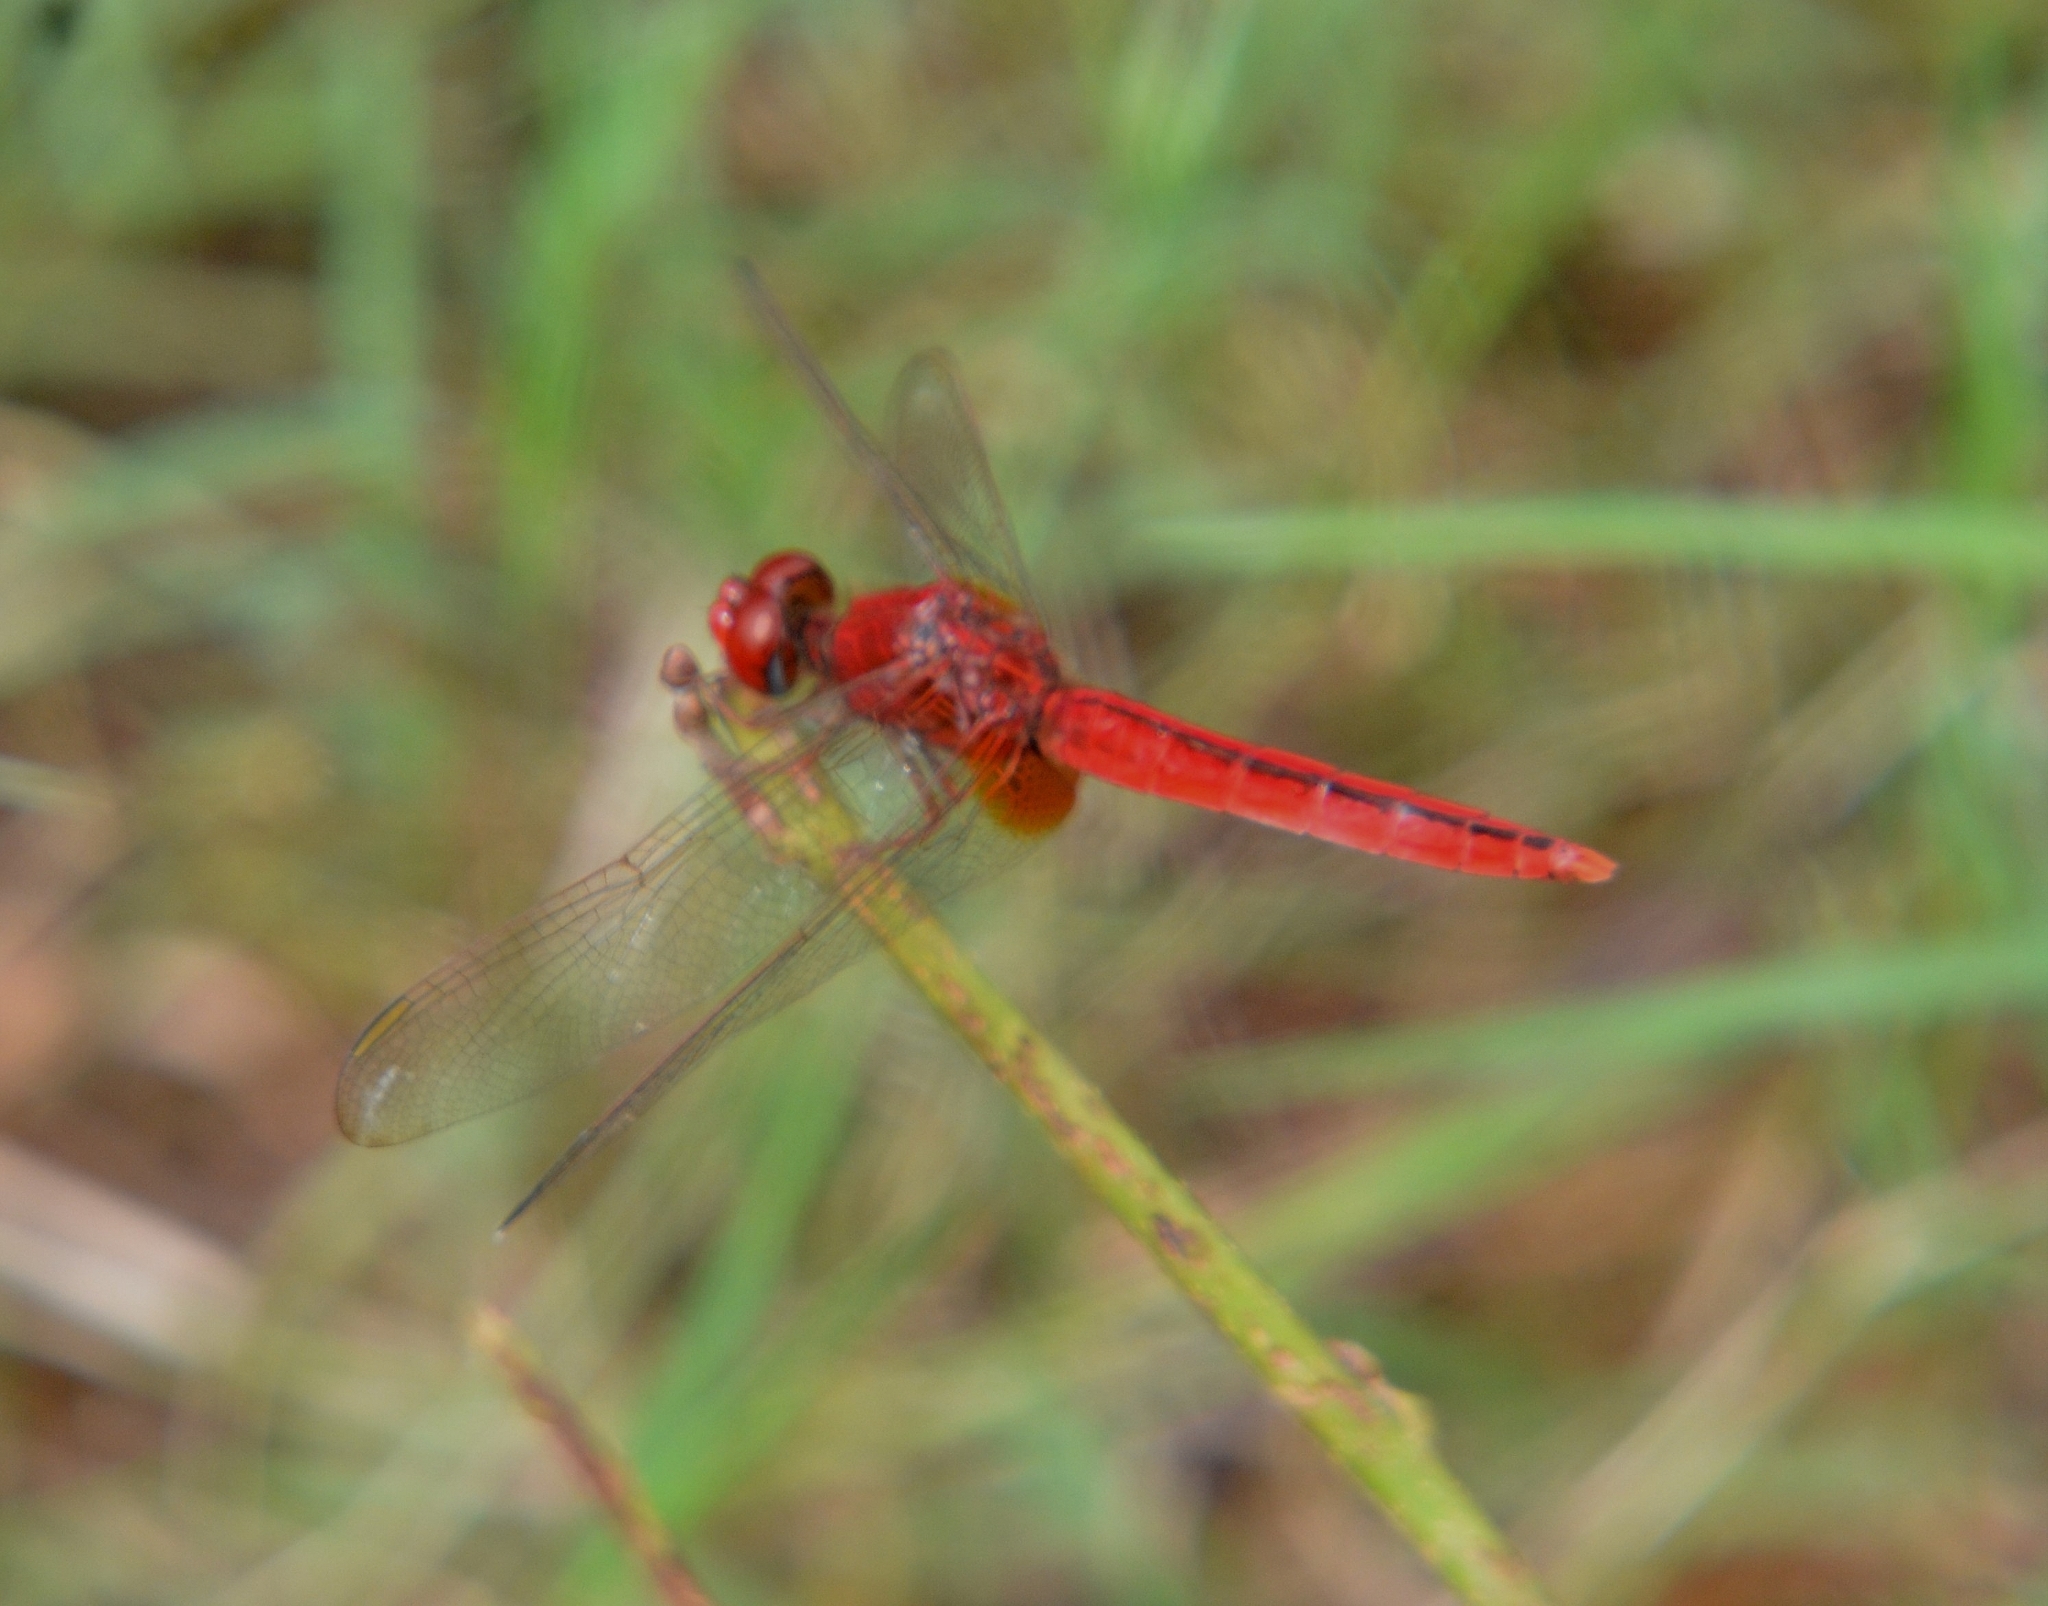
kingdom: Animalia
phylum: Arthropoda
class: Insecta
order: Odonata
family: Libellulidae
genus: Crocothemis
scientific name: Crocothemis servilia
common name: Scarlet skimmer
